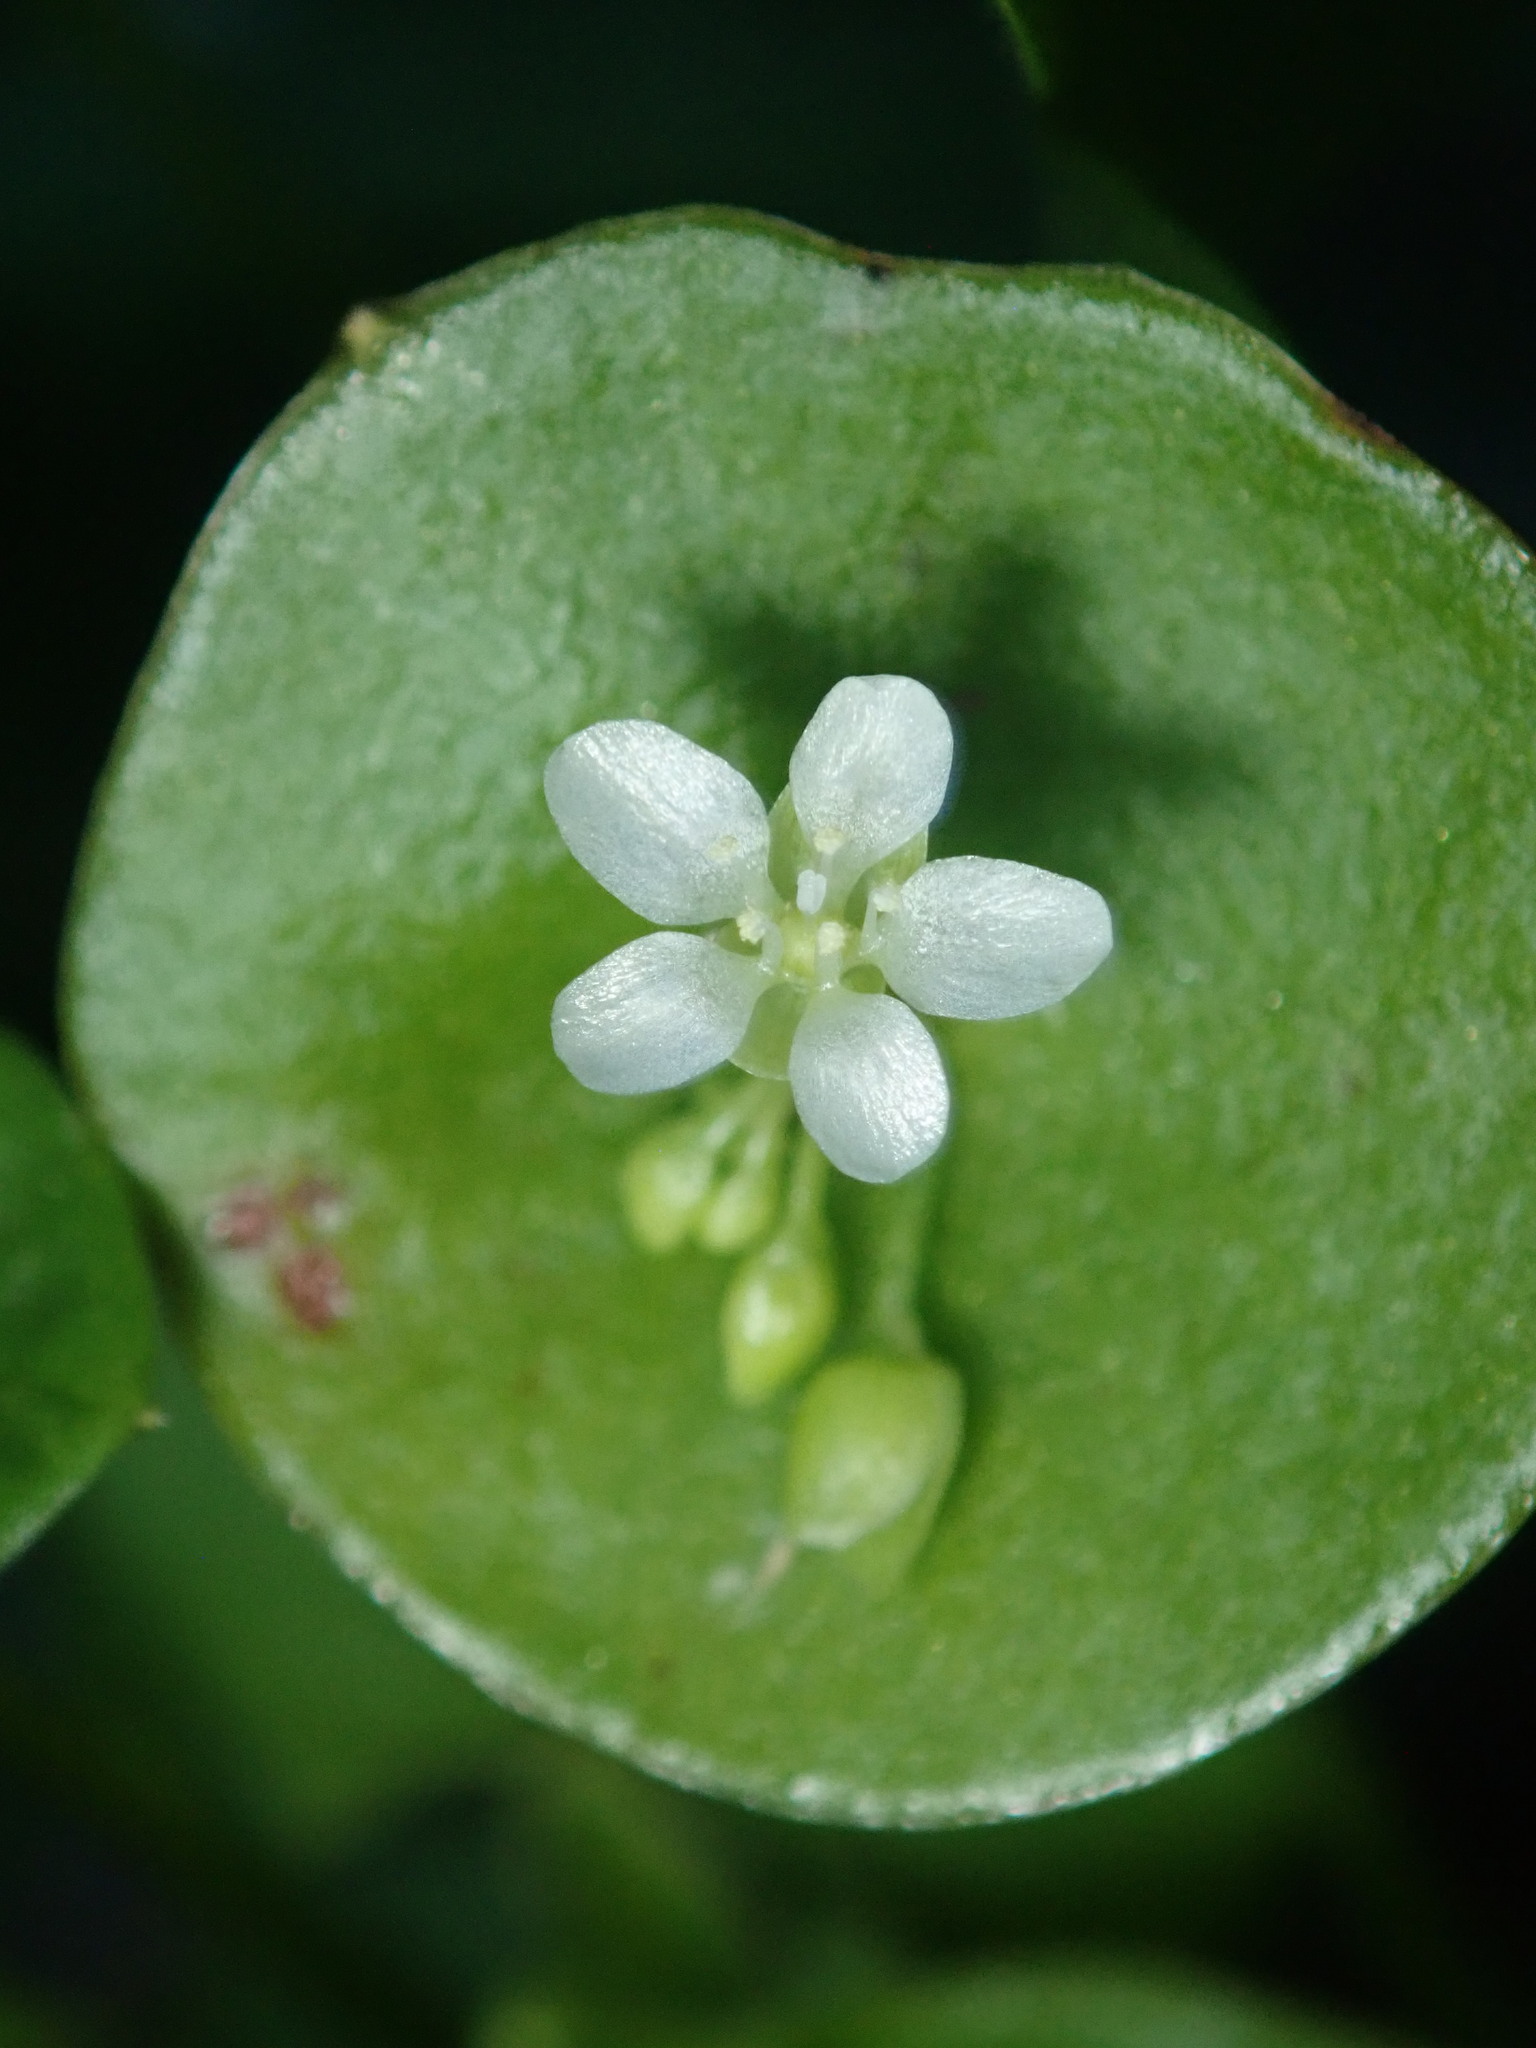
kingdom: Plantae
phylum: Tracheophyta
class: Magnoliopsida
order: Caryophyllales
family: Montiaceae
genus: Claytonia
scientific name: Claytonia perfoliata
